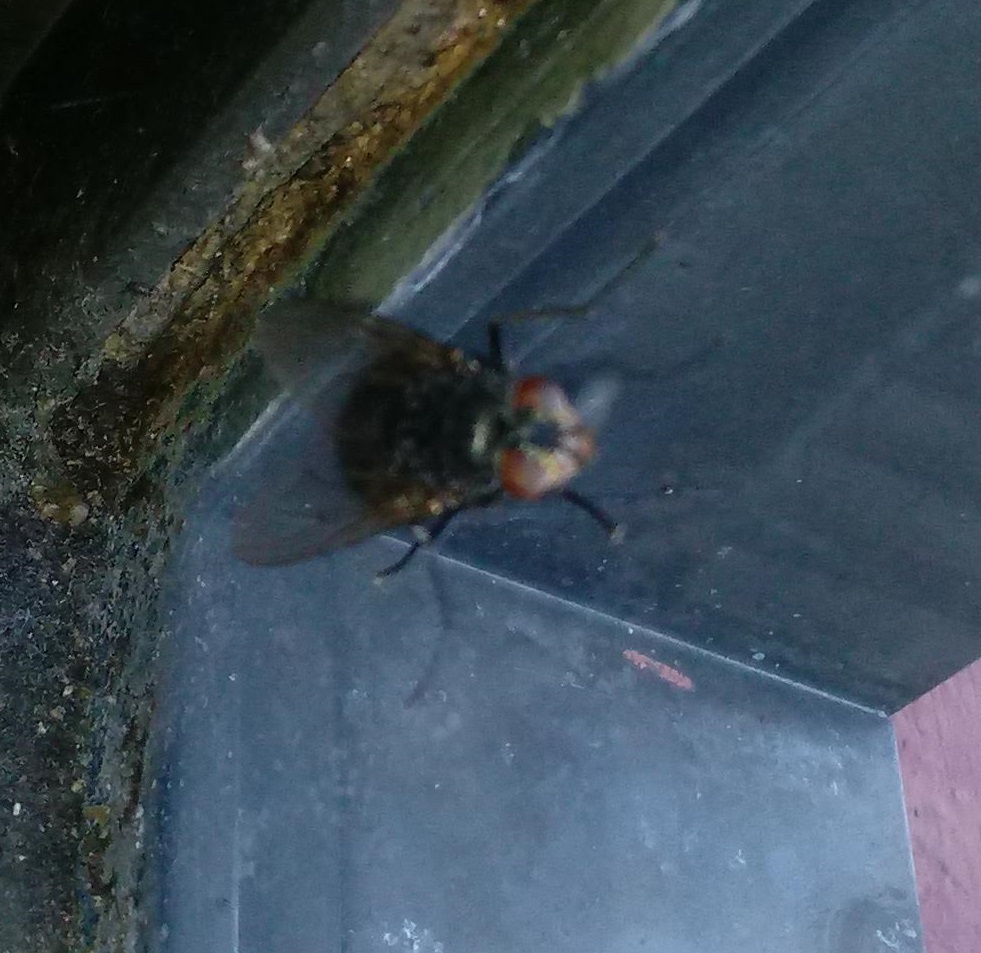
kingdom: Animalia
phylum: Arthropoda
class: Insecta
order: Diptera
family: Calliphoridae
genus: Calliphora
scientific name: Calliphora vicina
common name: Common blow flie
